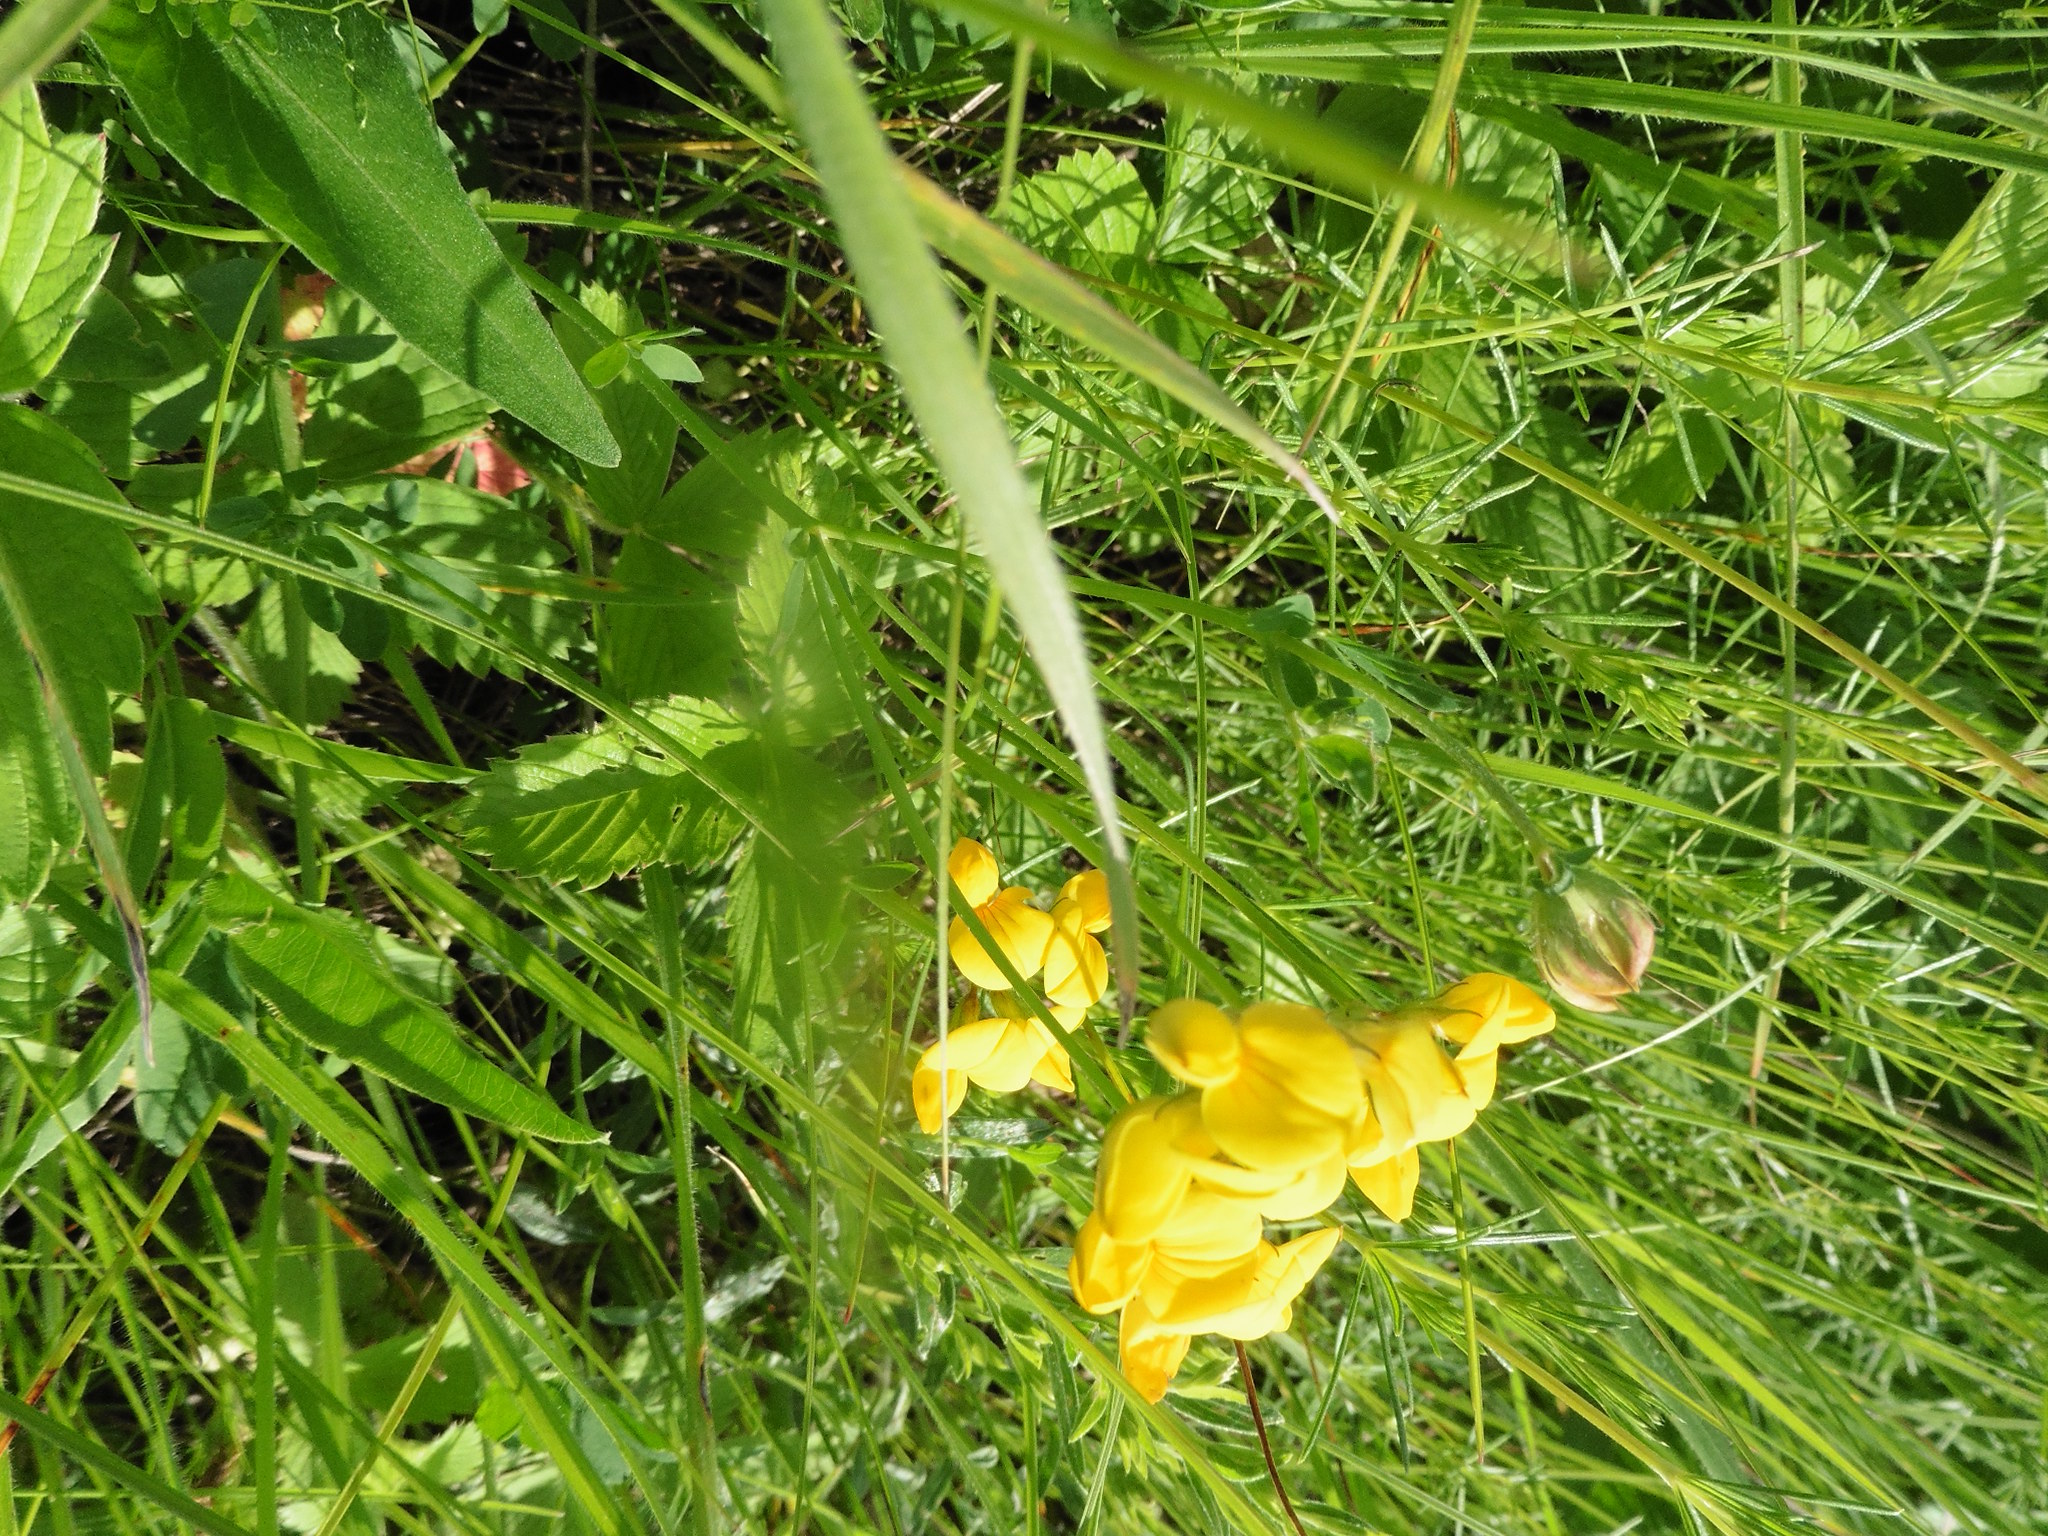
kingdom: Plantae
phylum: Tracheophyta
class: Magnoliopsida
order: Fabales
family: Fabaceae
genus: Lotus
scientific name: Lotus corniculatus
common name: Common bird's-foot-trefoil
